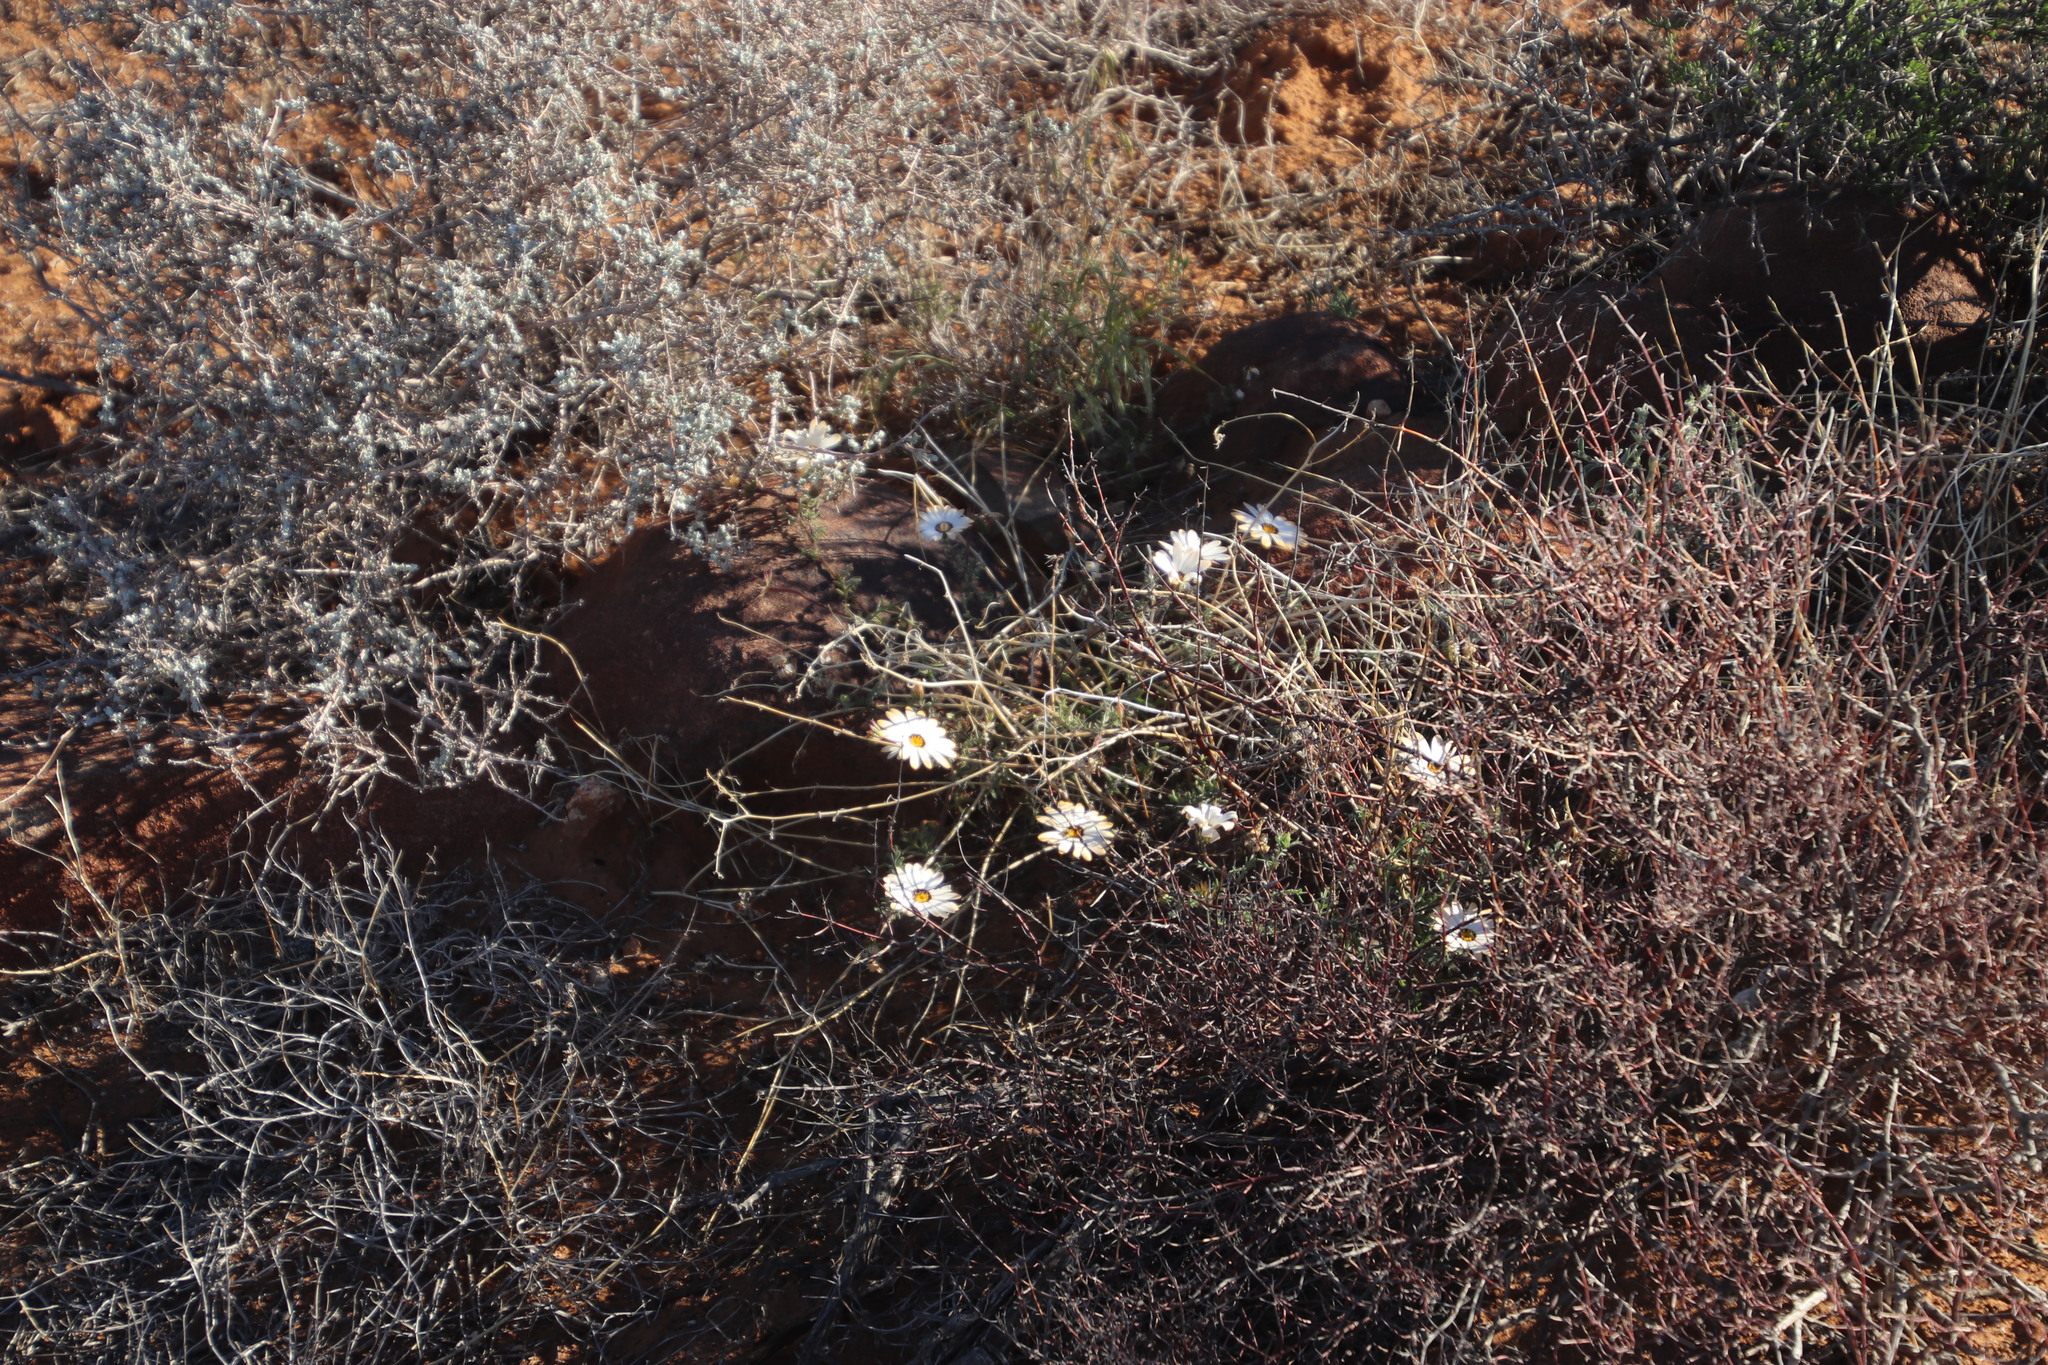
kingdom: Plantae
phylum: Tracheophyta
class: Magnoliopsida
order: Asterales
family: Asteraceae
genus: Dimorphotheca
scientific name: Dimorphotheca pinnata
